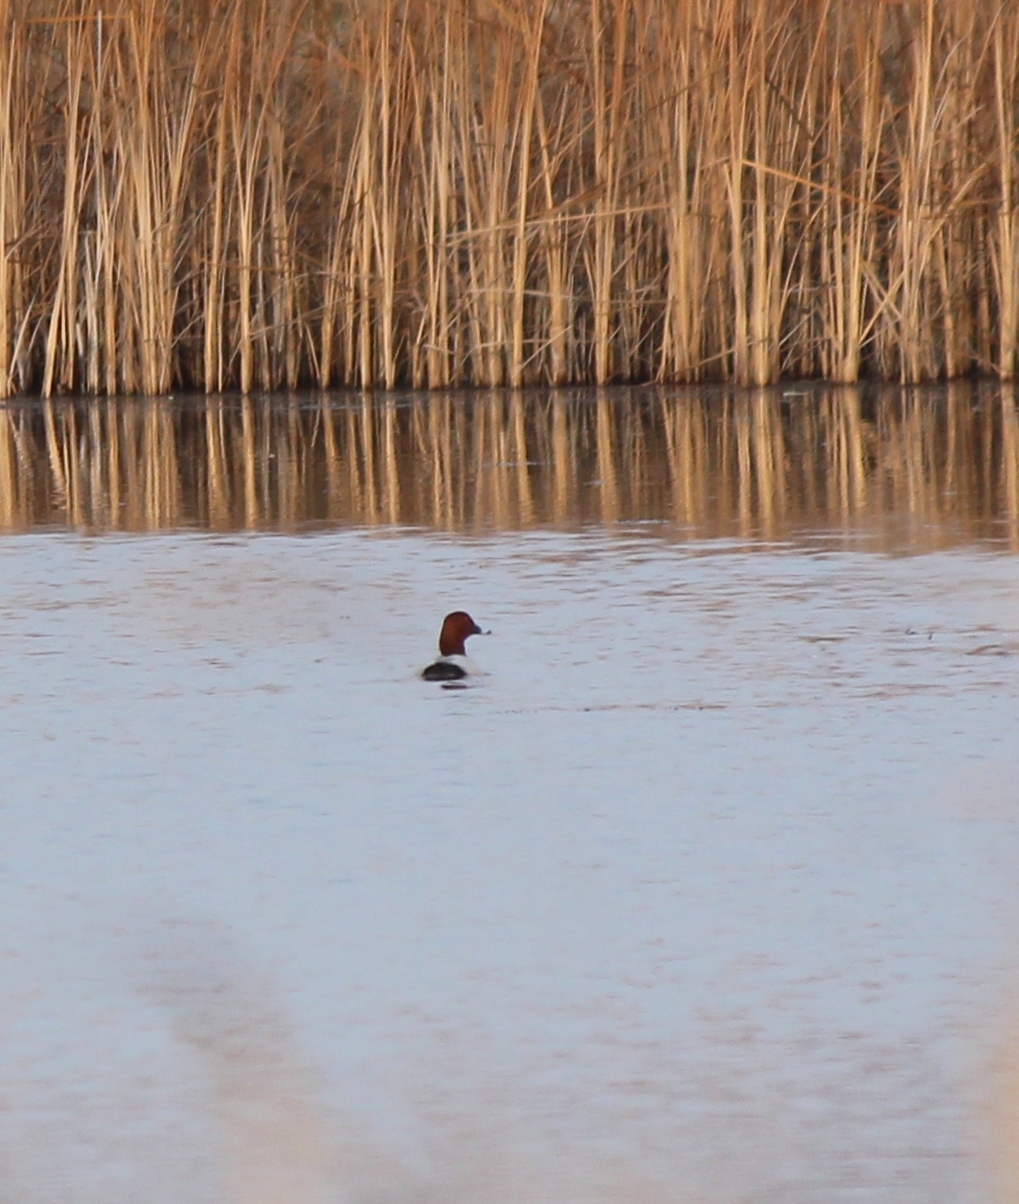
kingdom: Animalia
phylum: Chordata
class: Aves
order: Anseriformes
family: Anatidae
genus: Aythya
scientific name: Aythya ferina
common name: Common pochard
